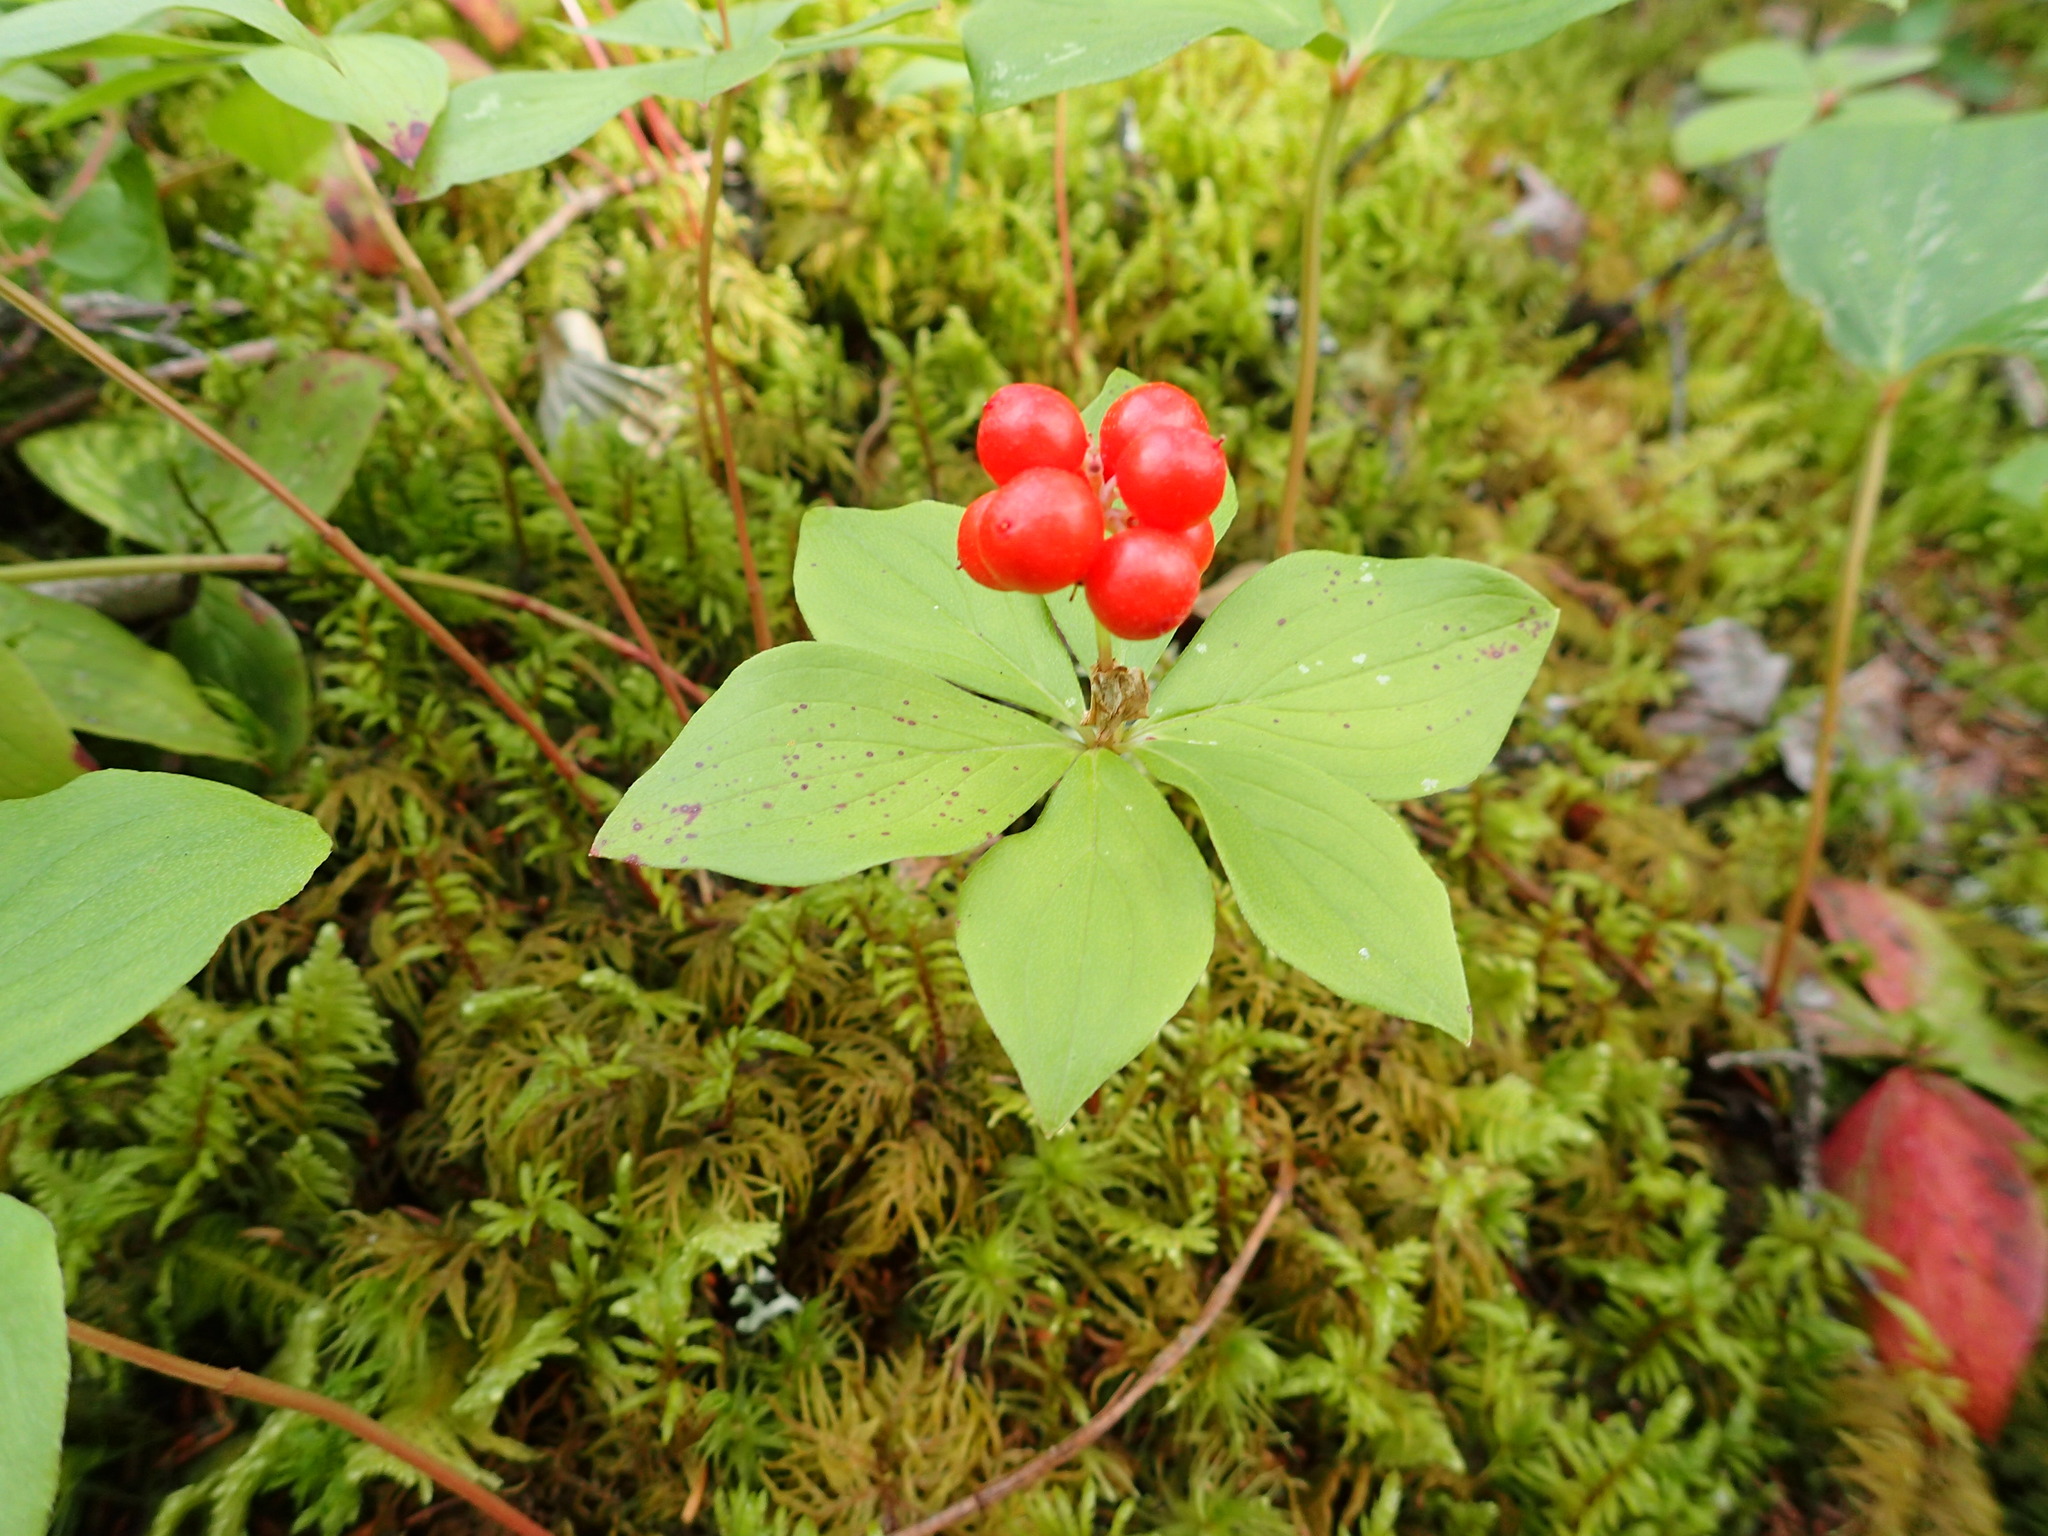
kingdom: Plantae
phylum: Tracheophyta
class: Magnoliopsida
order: Cornales
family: Cornaceae
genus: Cornus
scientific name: Cornus canadensis
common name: Creeping dogwood
